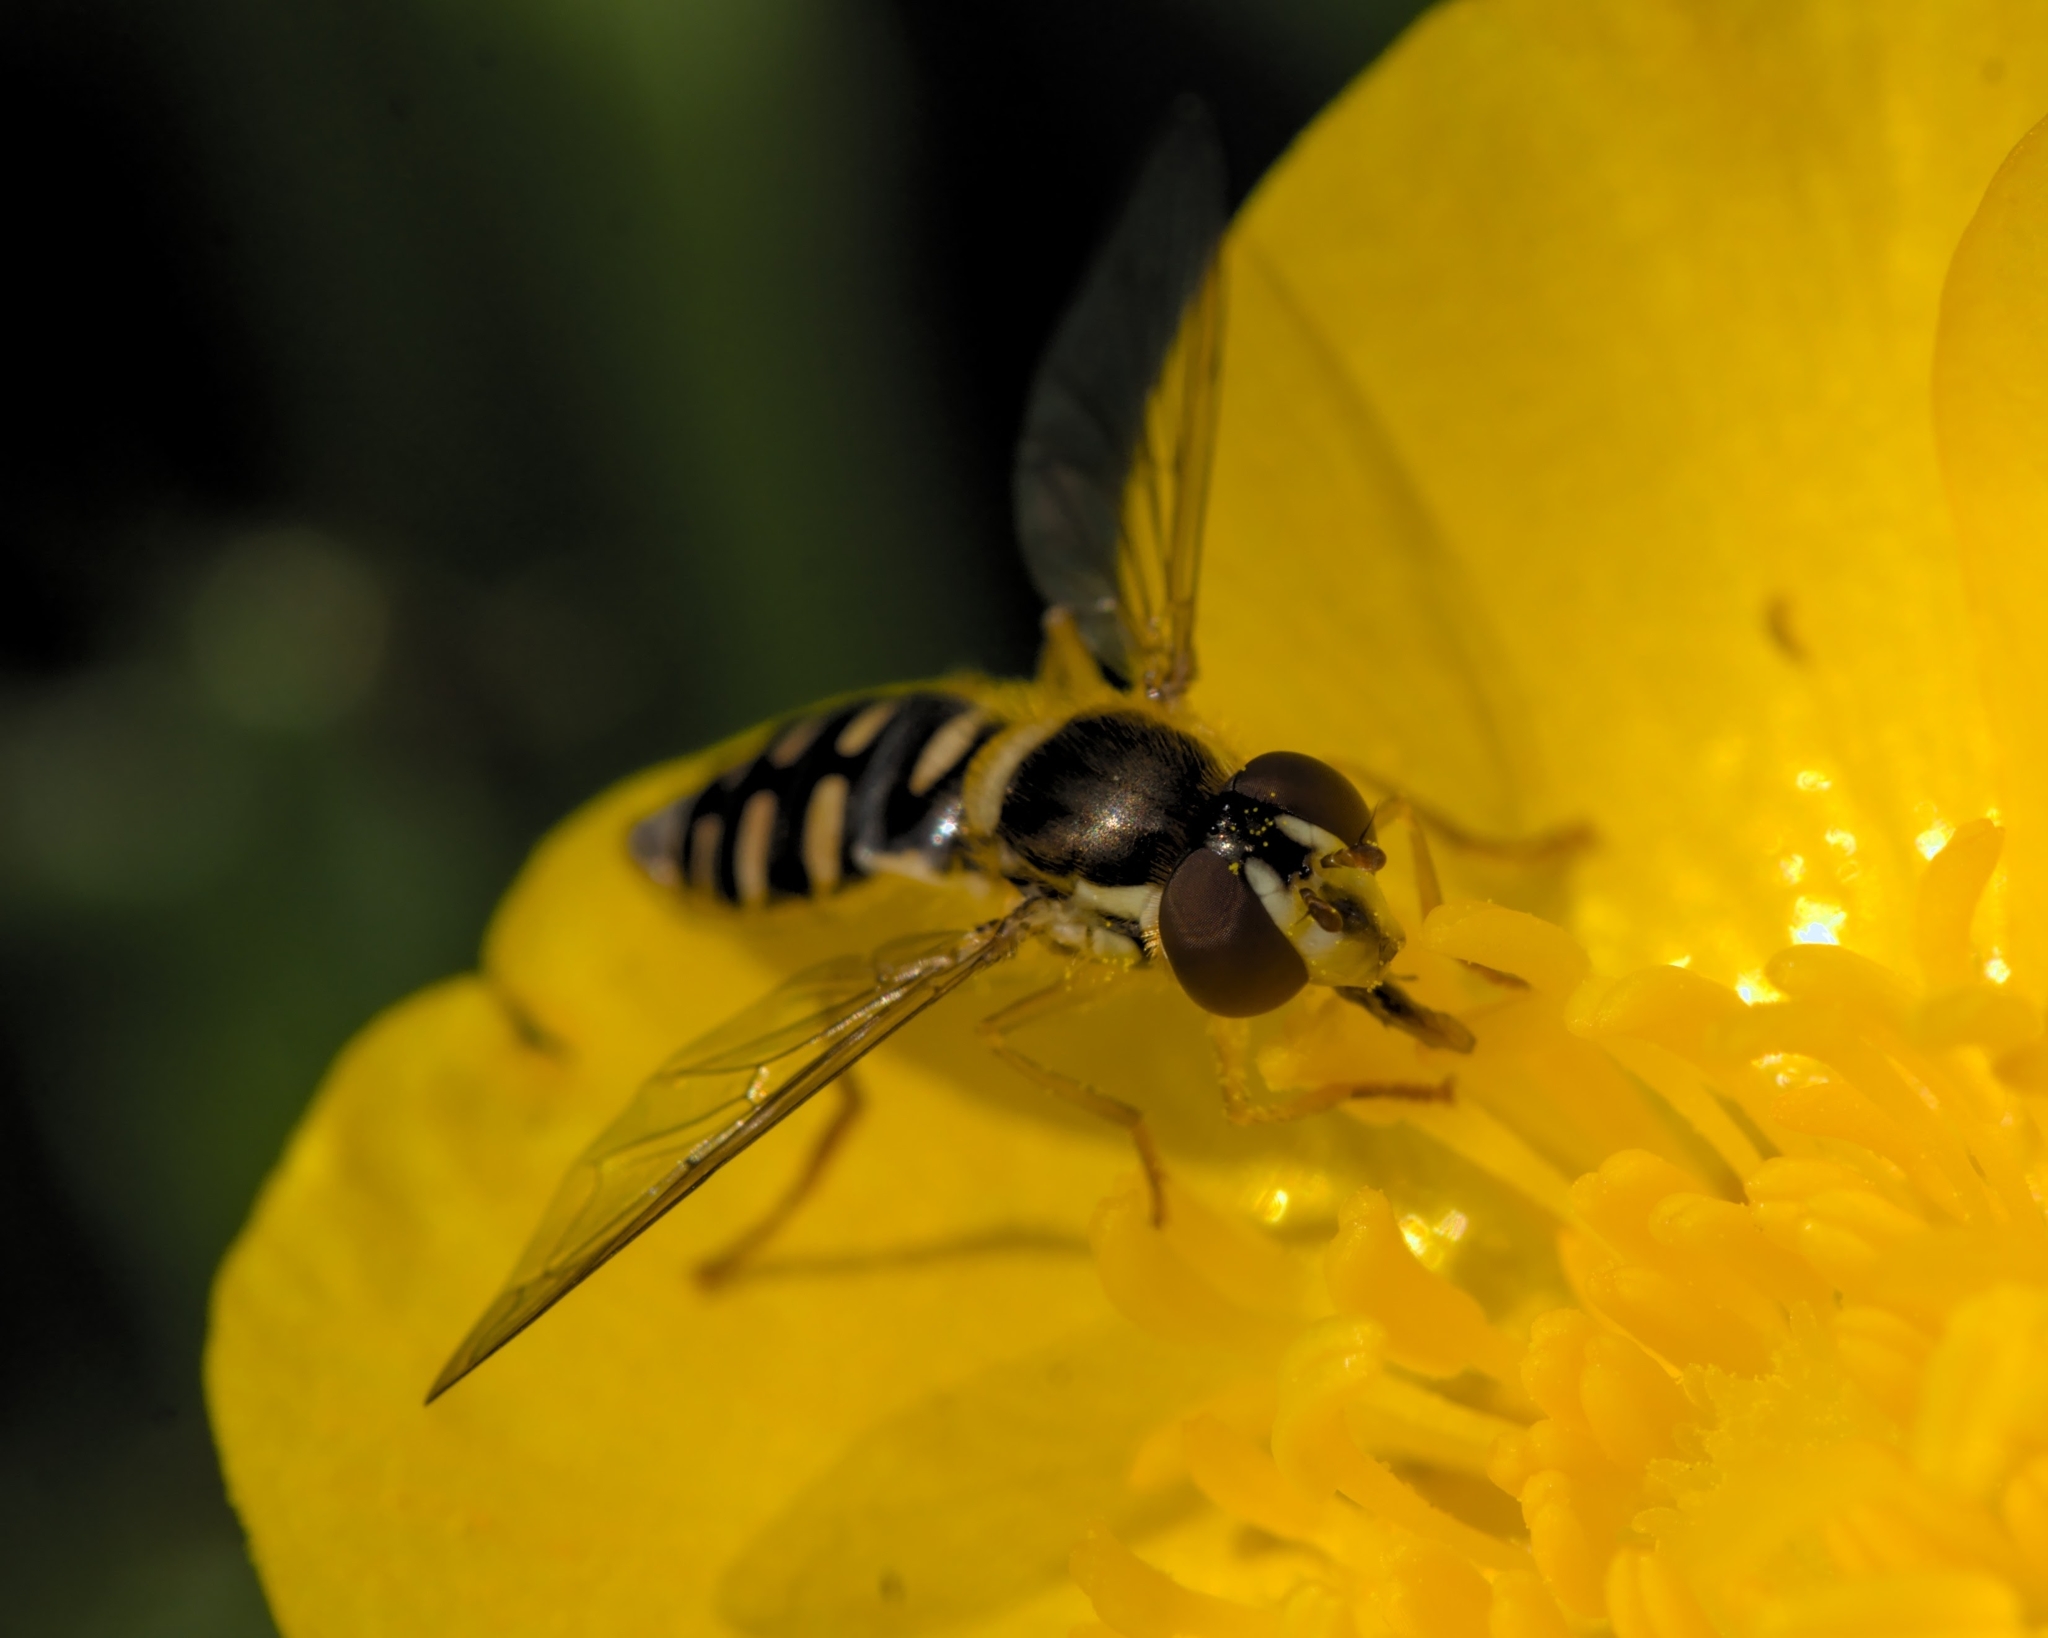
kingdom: Animalia
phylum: Arthropoda
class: Insecta
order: Diptera
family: Syrphidae
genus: Sphaerophoria
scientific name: Sphaerophoria
